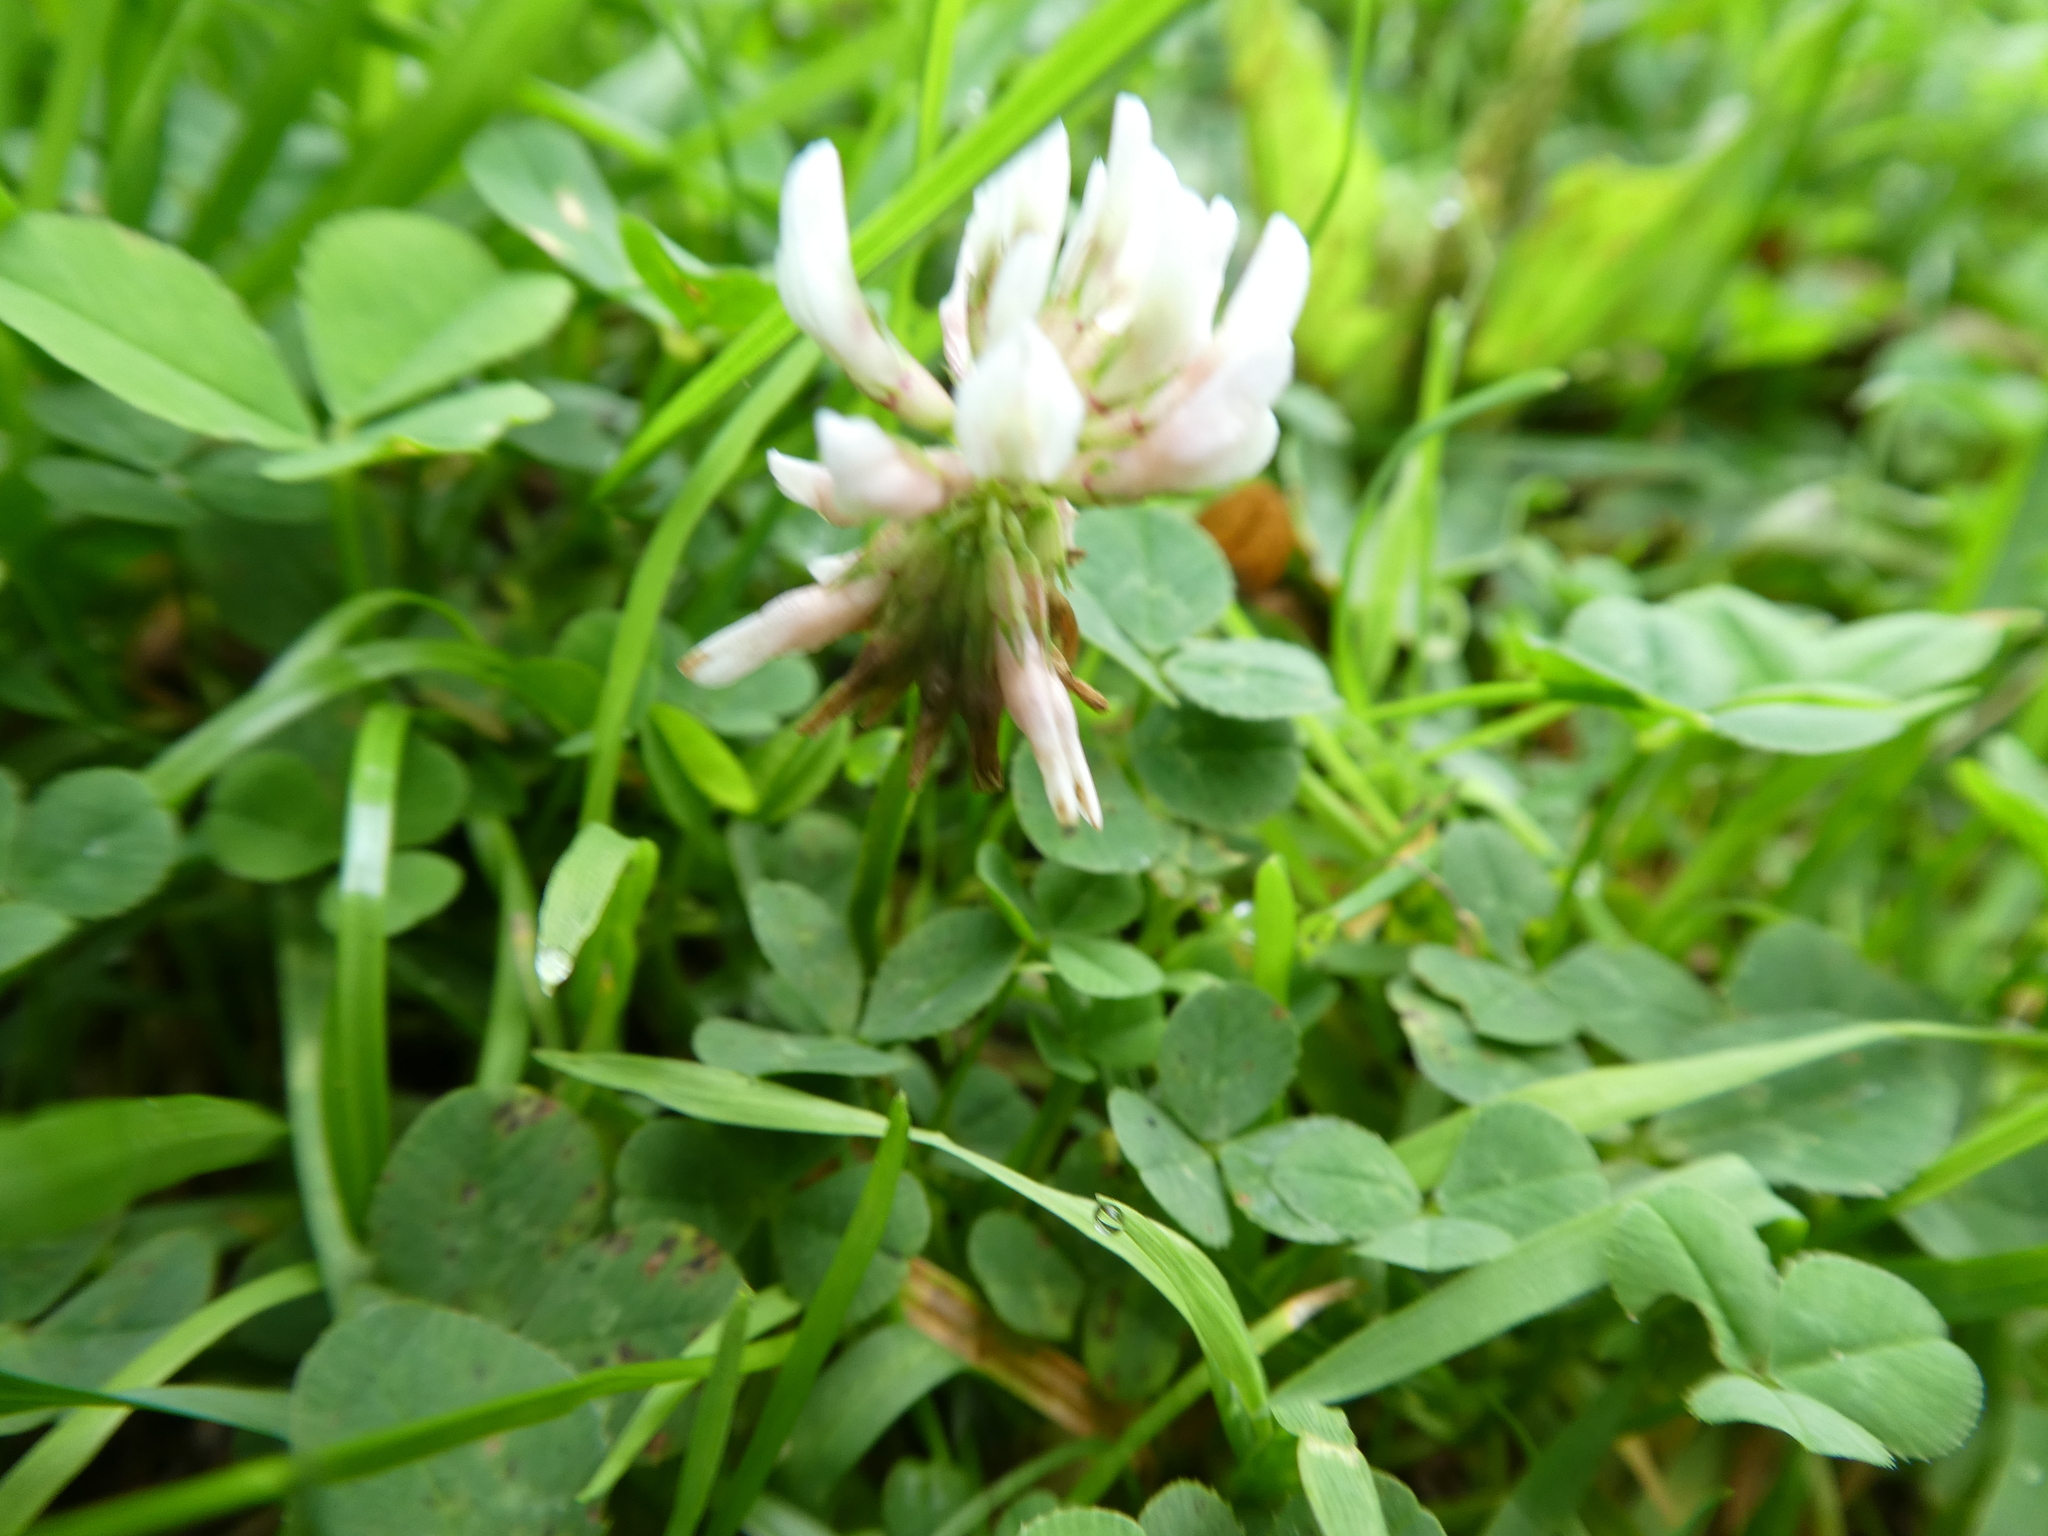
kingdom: Plantae
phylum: Tracheophyta
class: Magnoliopsida
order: Fabales
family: Fabaceae
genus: Trifolium
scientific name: Trifolium repens
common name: White clover
